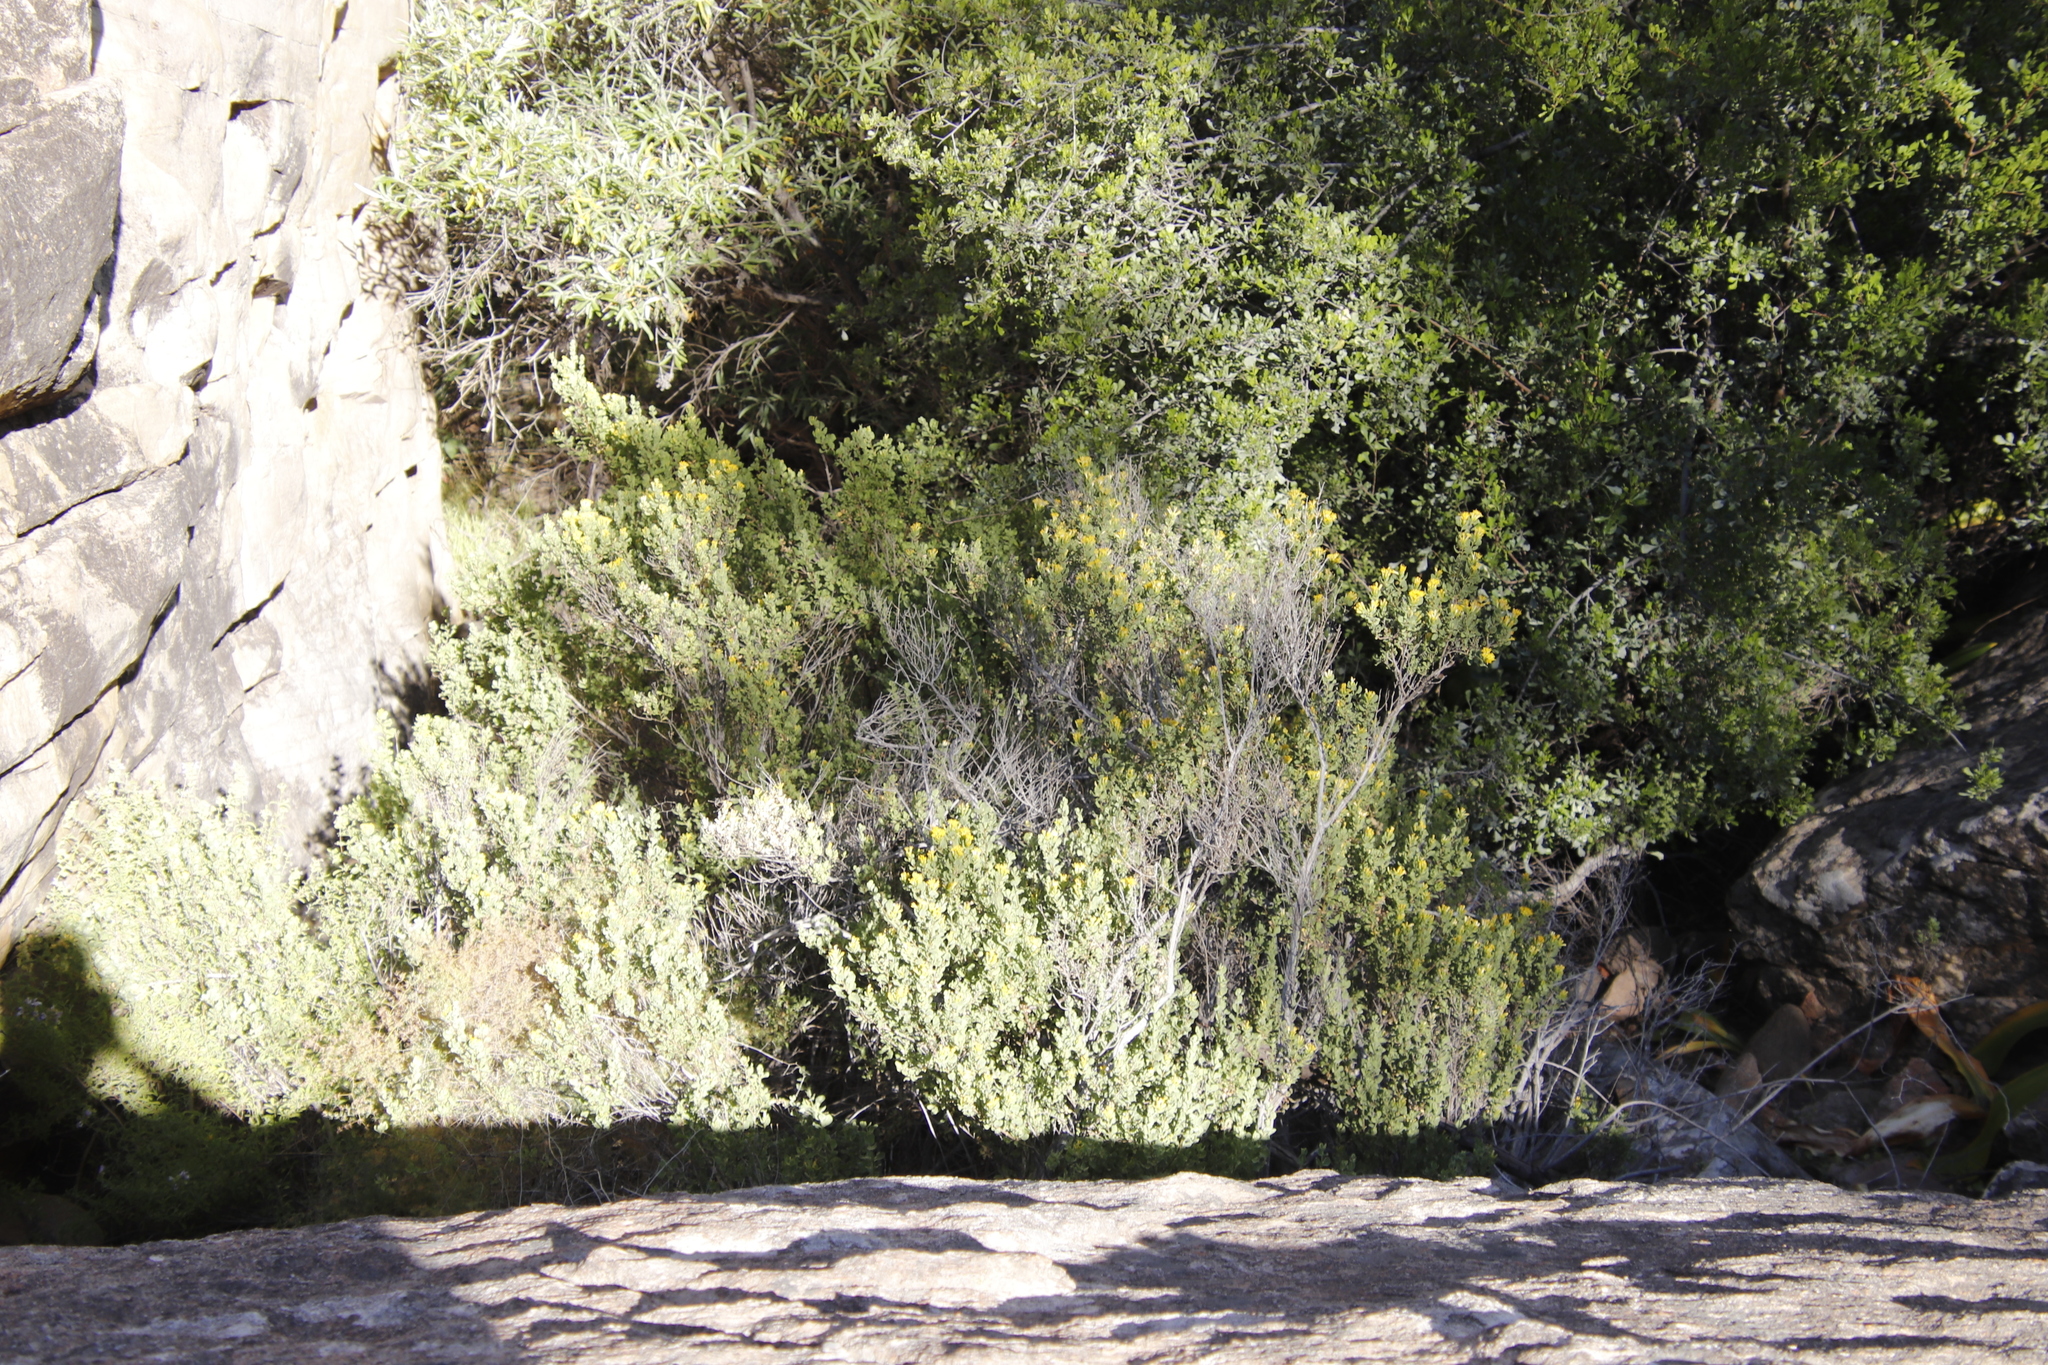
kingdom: Plantae
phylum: Tracheophyta
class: Magnoliopsida
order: Asterales
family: Asteraceae
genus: Pteronia
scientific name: Pteronia divaricata
